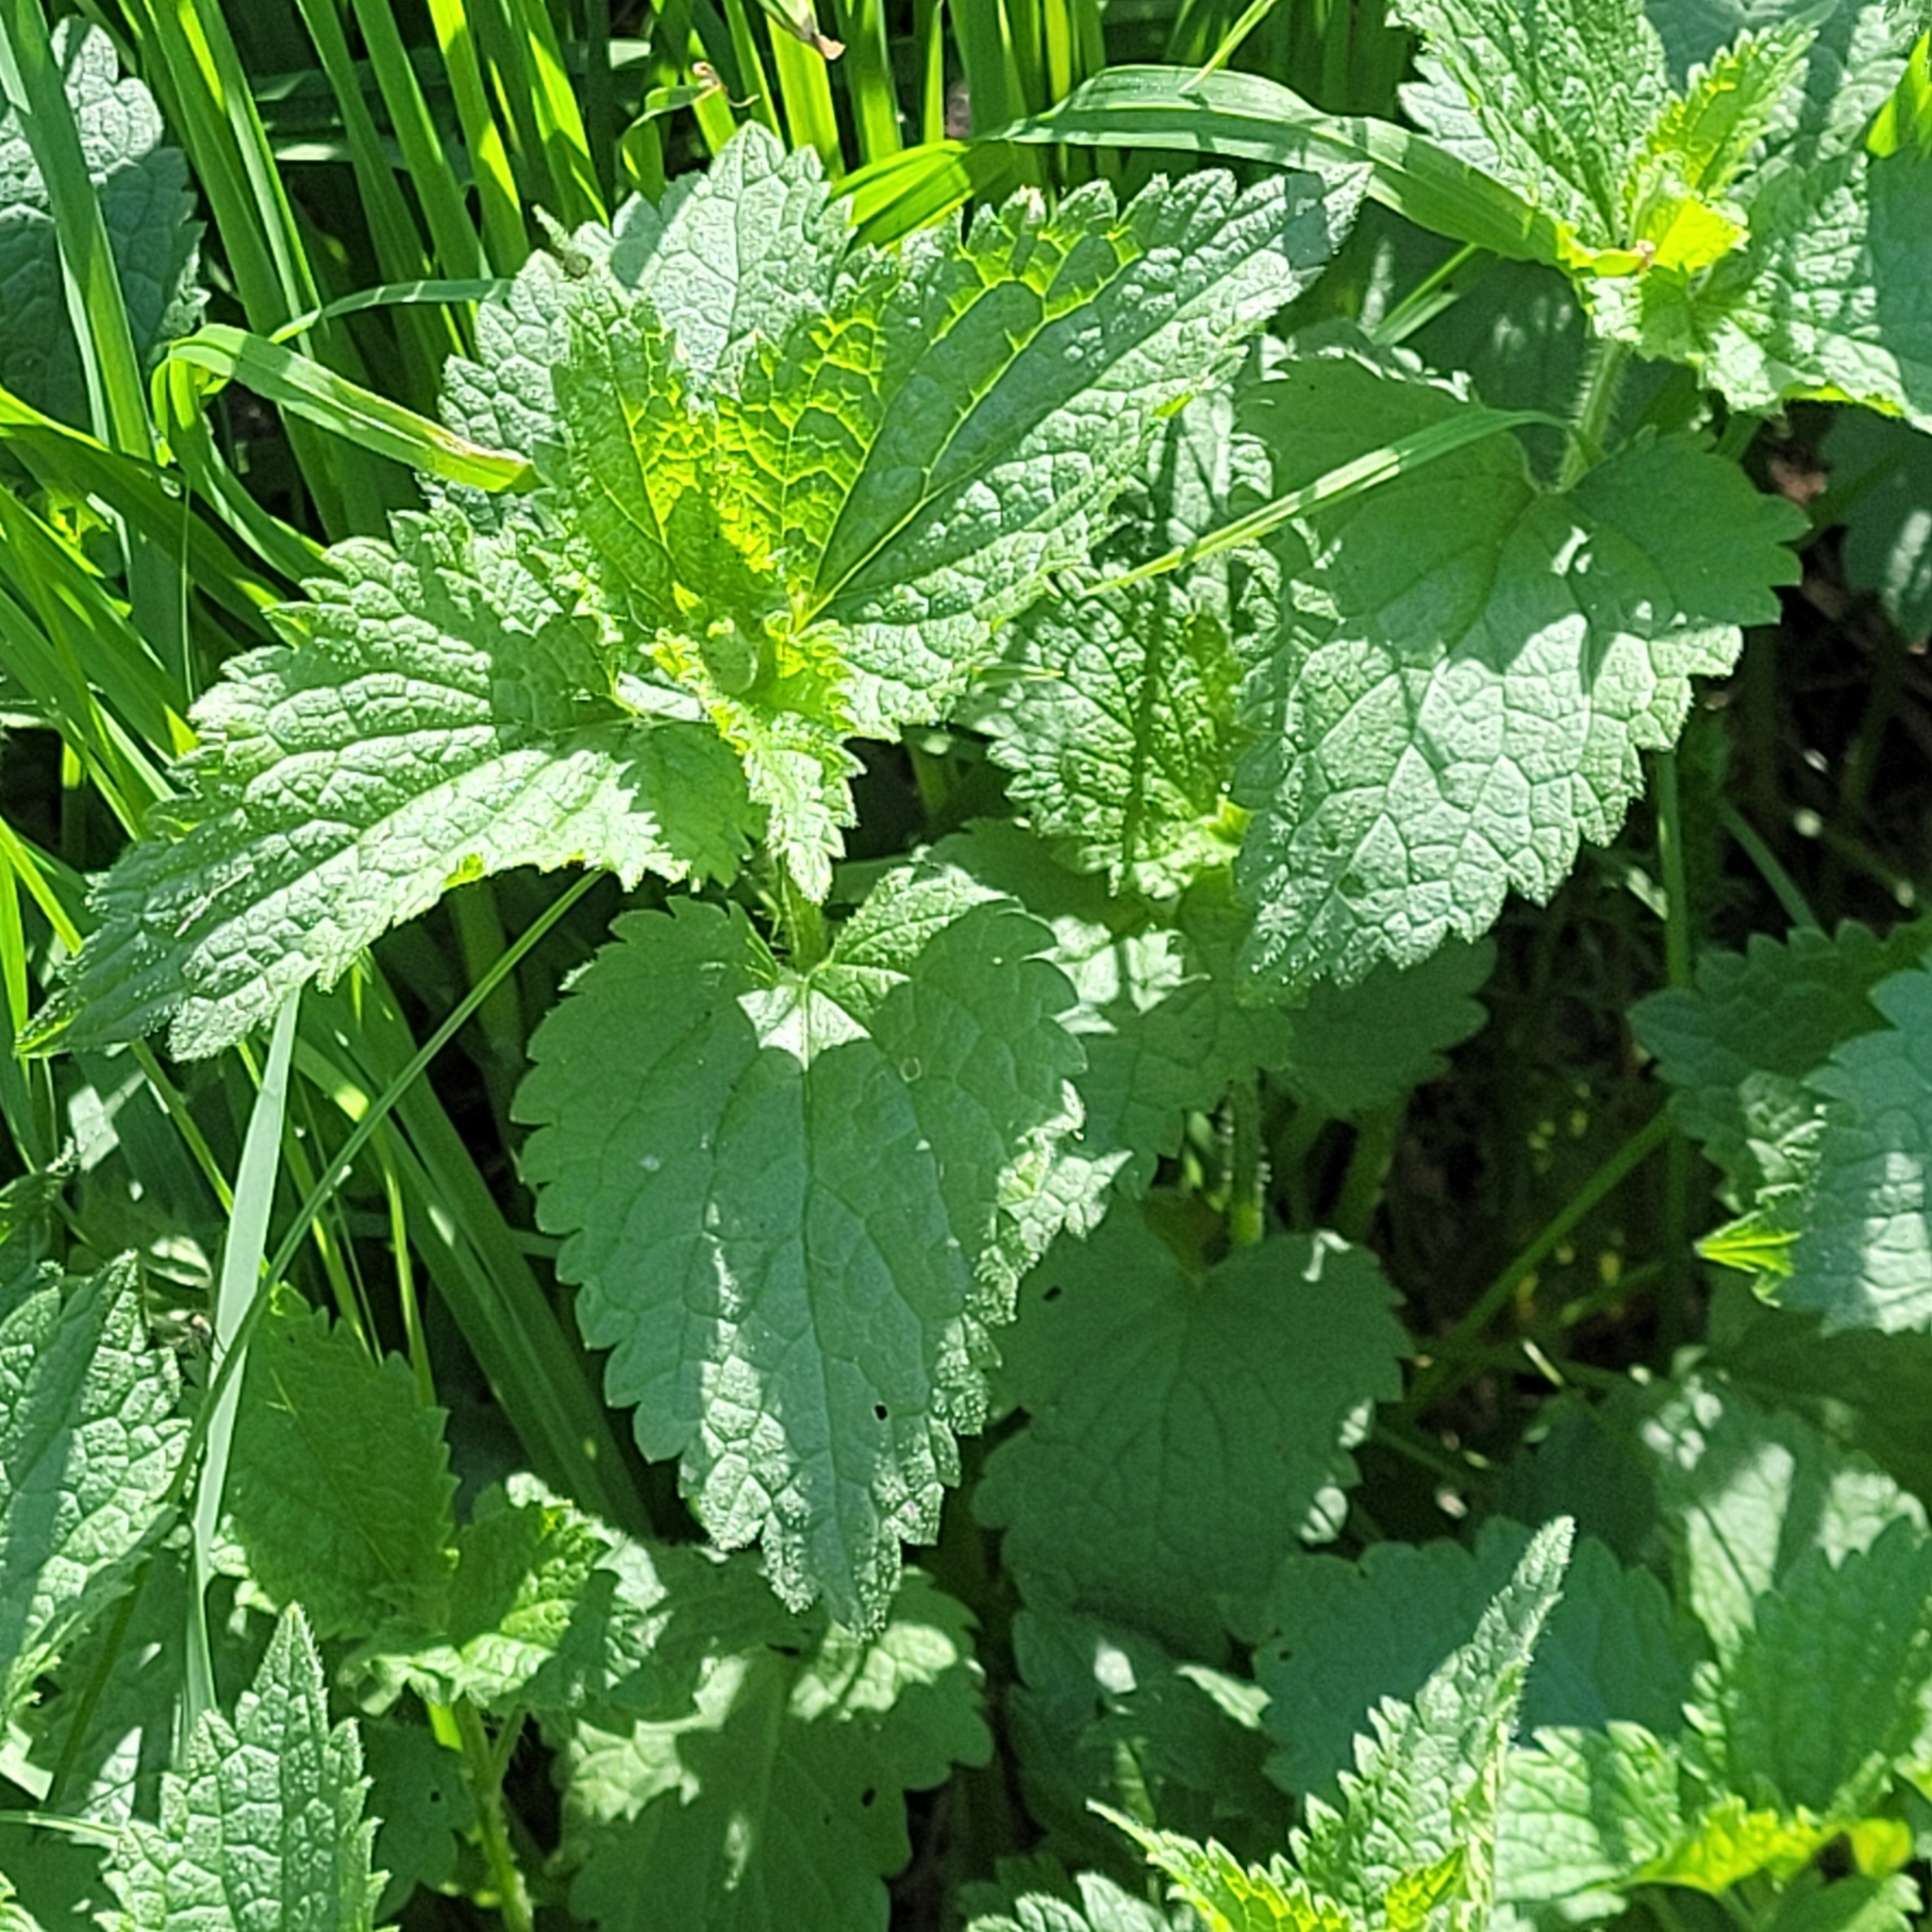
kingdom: Plantae
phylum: Tracheophyta
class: Magnoliopsida
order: Lamiales
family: Lamiaceae
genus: Lamium
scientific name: Lamium album
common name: White dead-nettle
